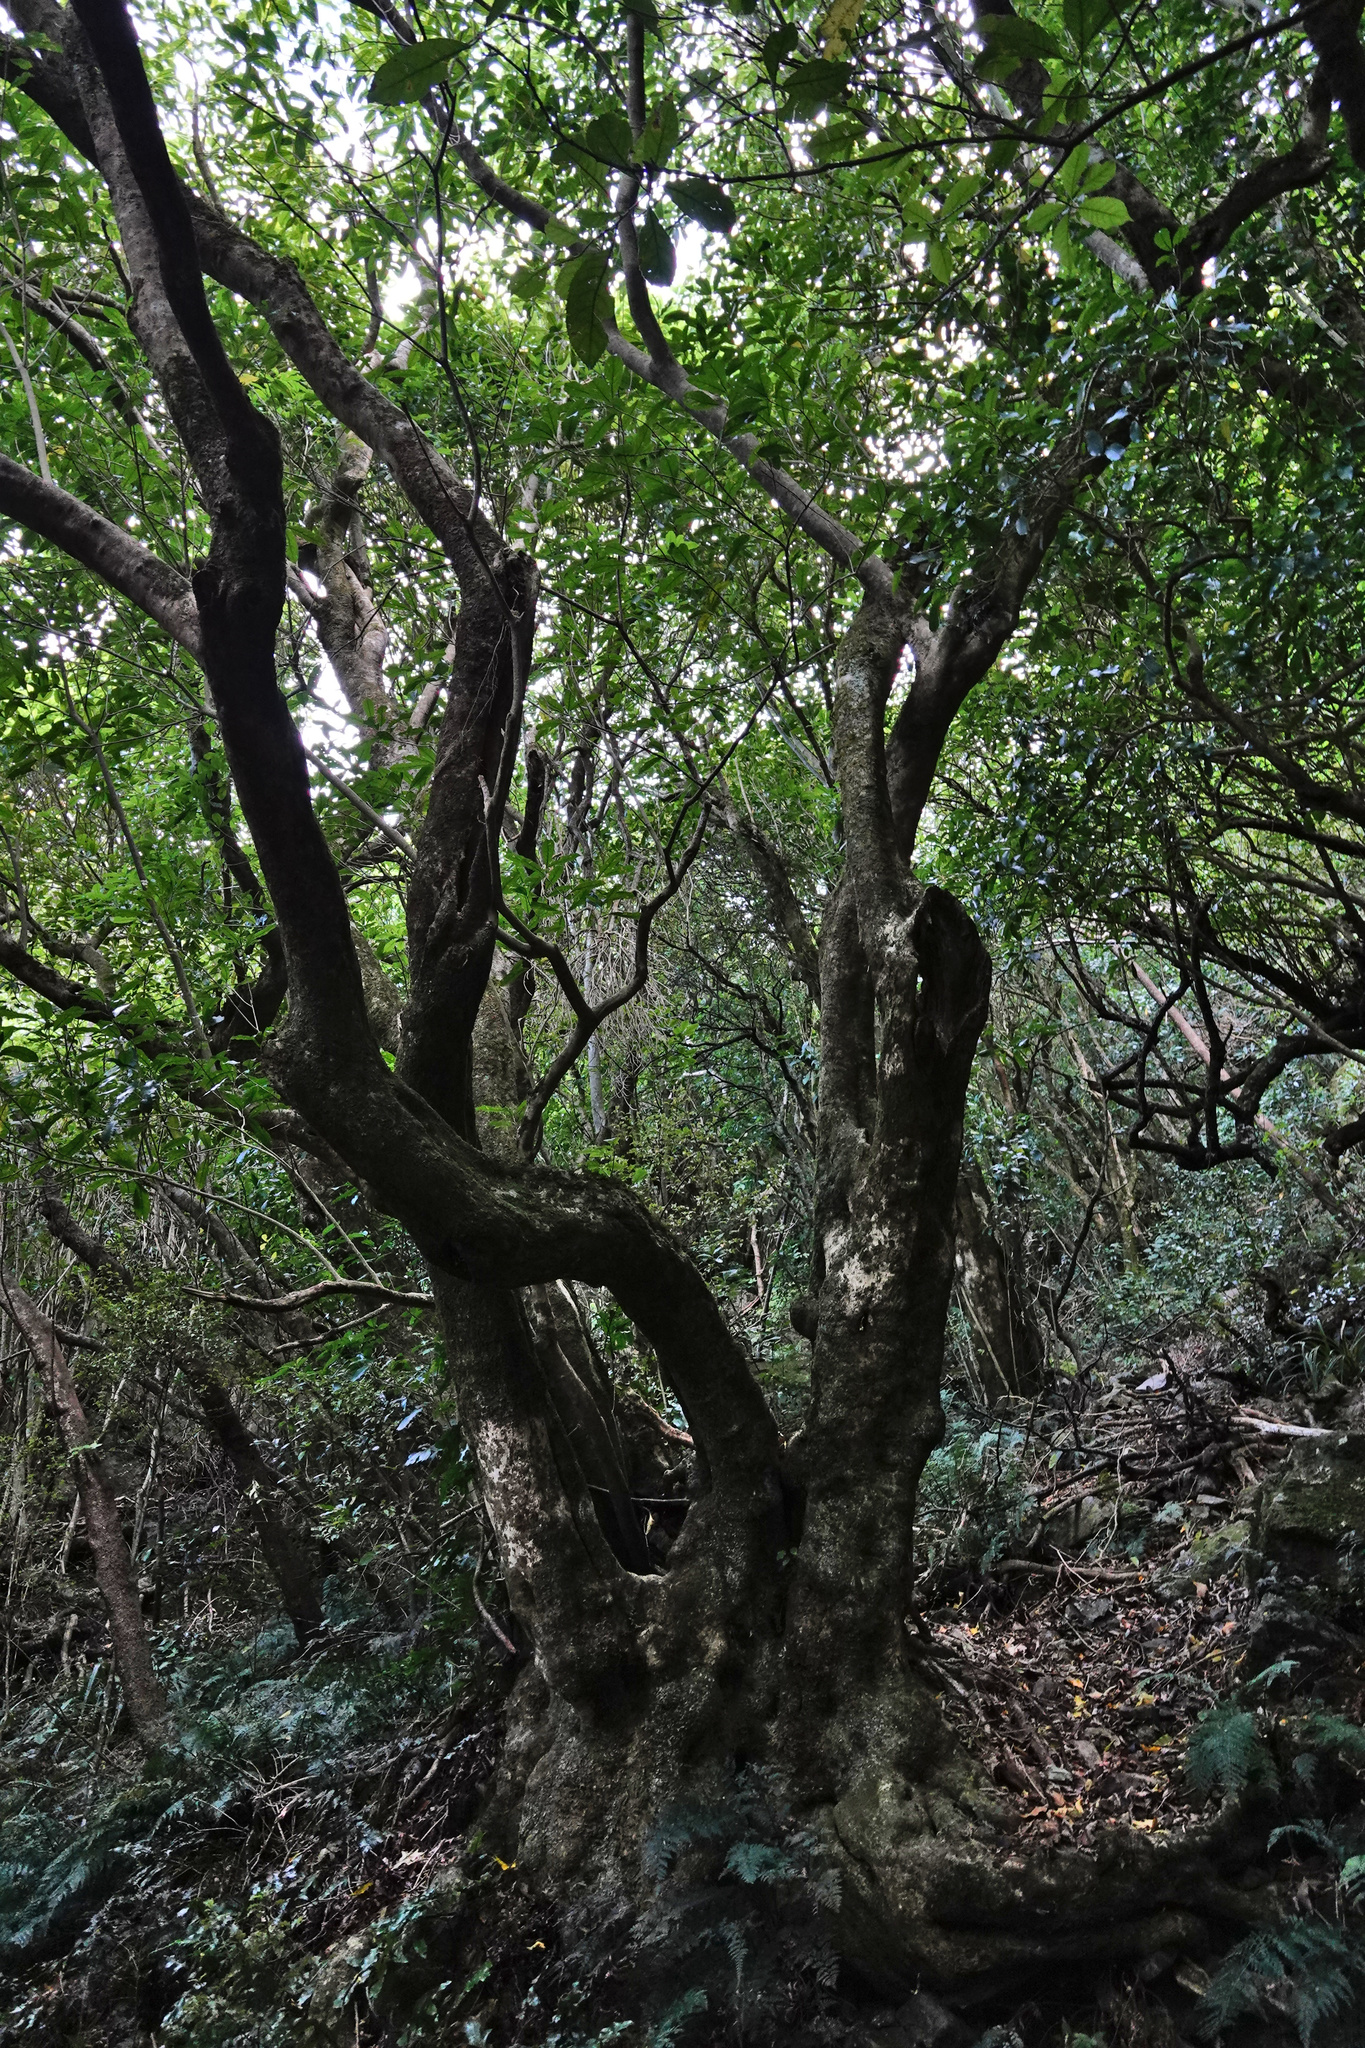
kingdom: Plantae
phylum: Tracheophyta
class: Magnoliopsida
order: Malpighiales
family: Violaceae
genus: Melicytus
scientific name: Melicytus ramiflorus
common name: Mahoe
